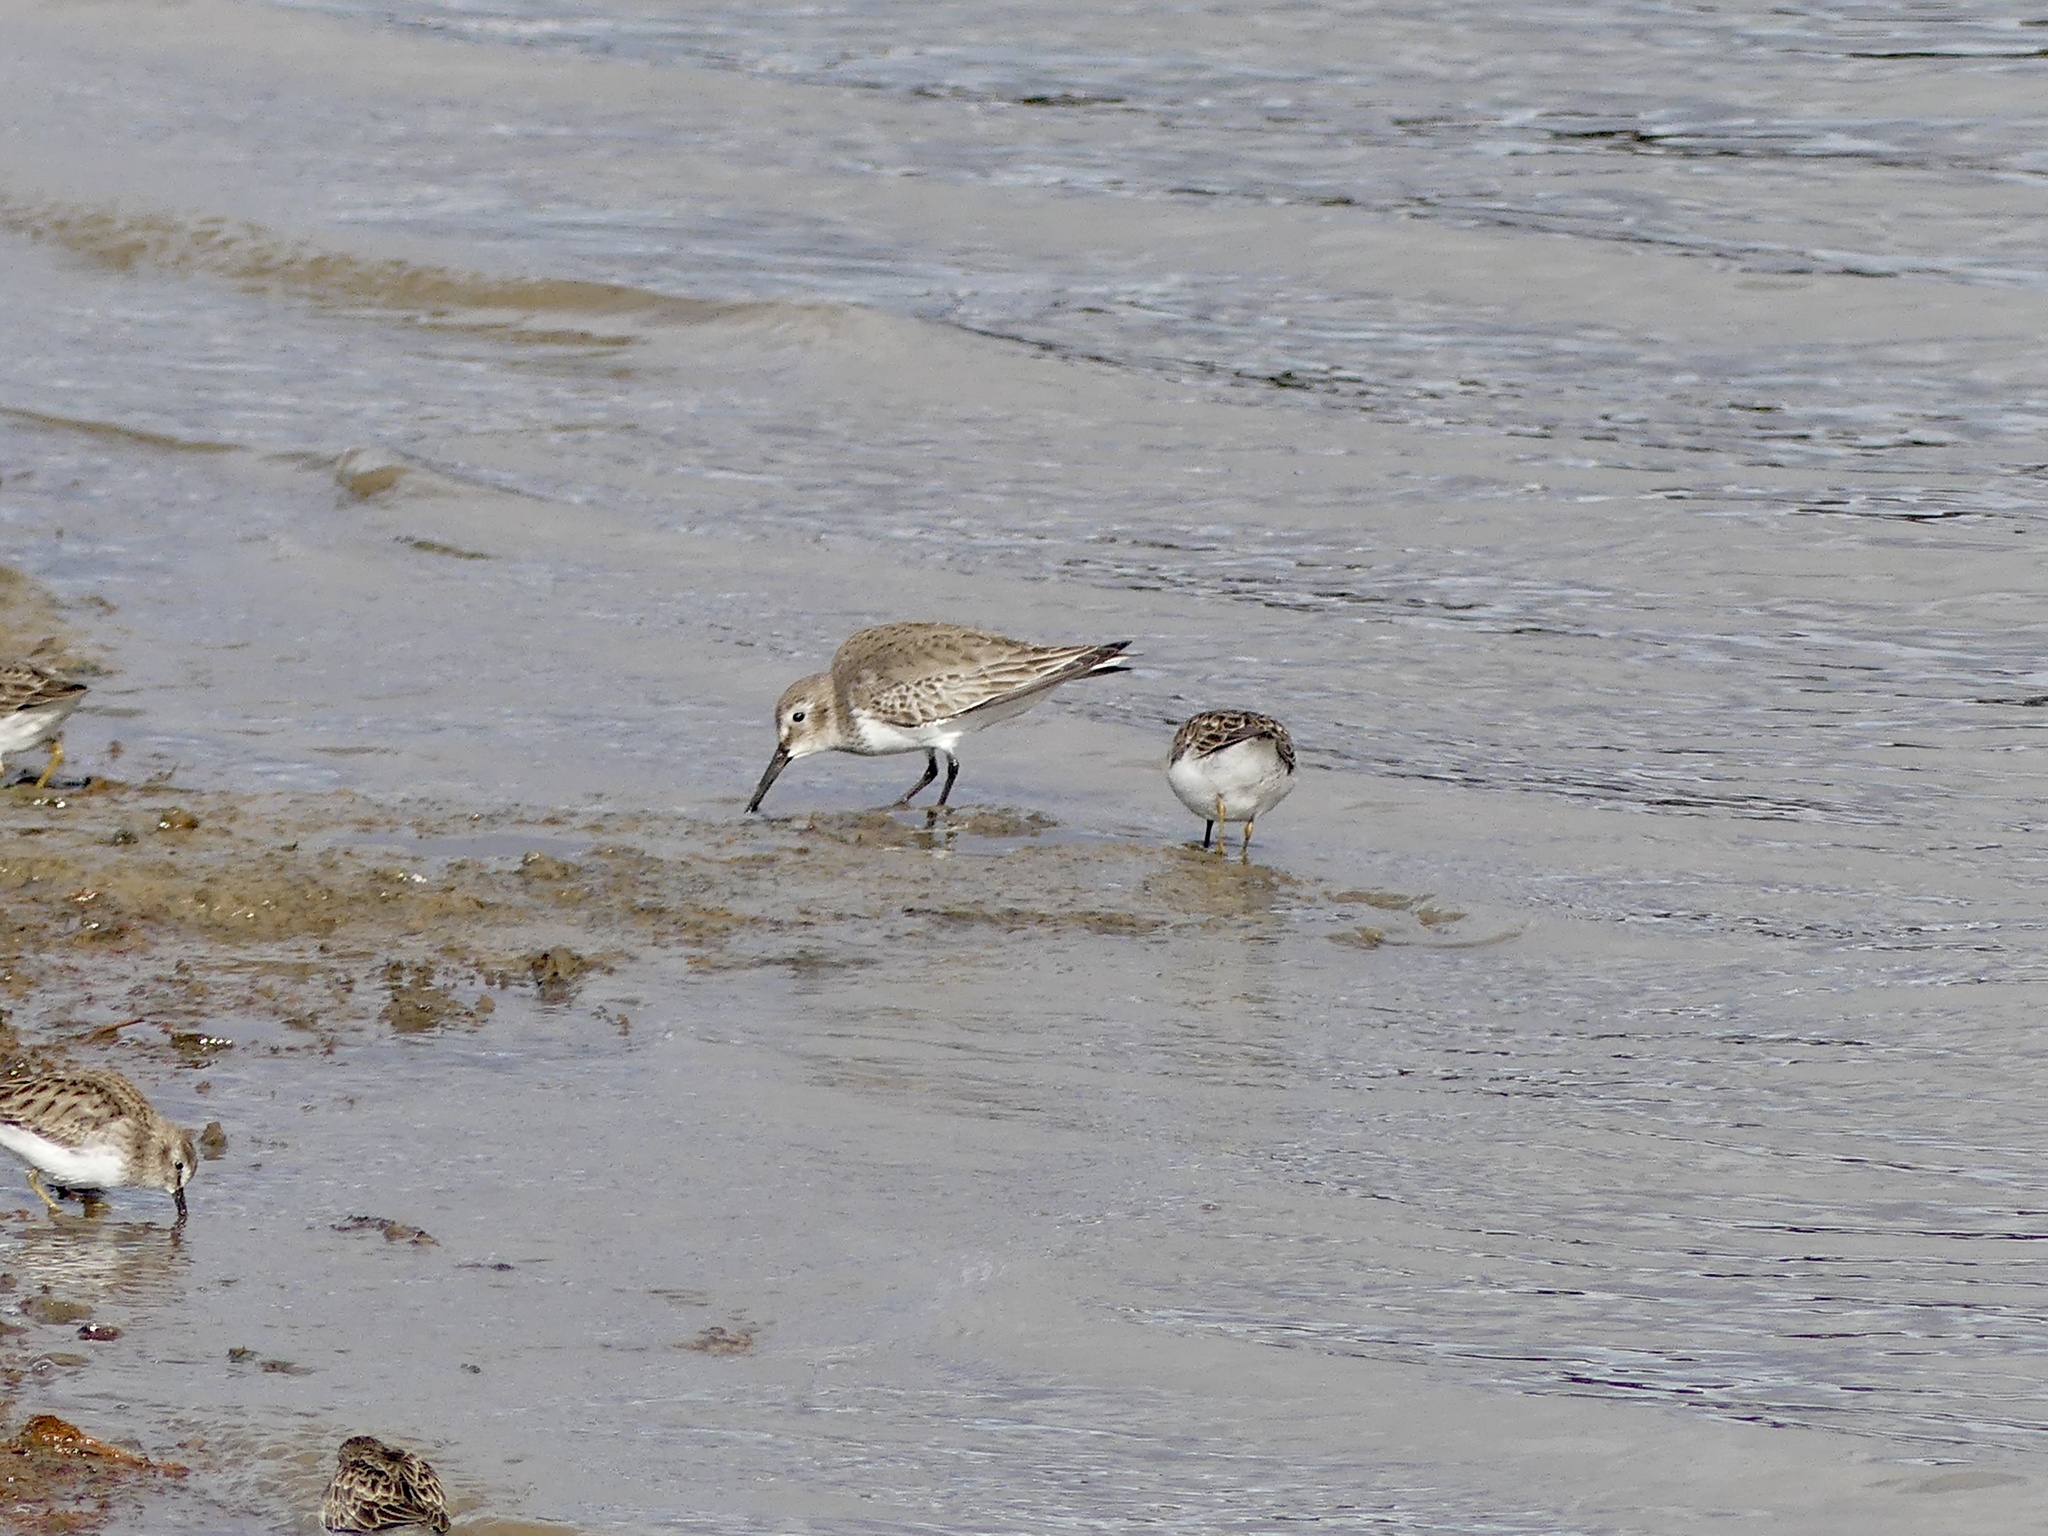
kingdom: Animalia
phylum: Chordata
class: Aves
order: Charadriiformes
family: Scolopacidae
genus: Calidris
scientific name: Calidris alpina
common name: Dunlin
